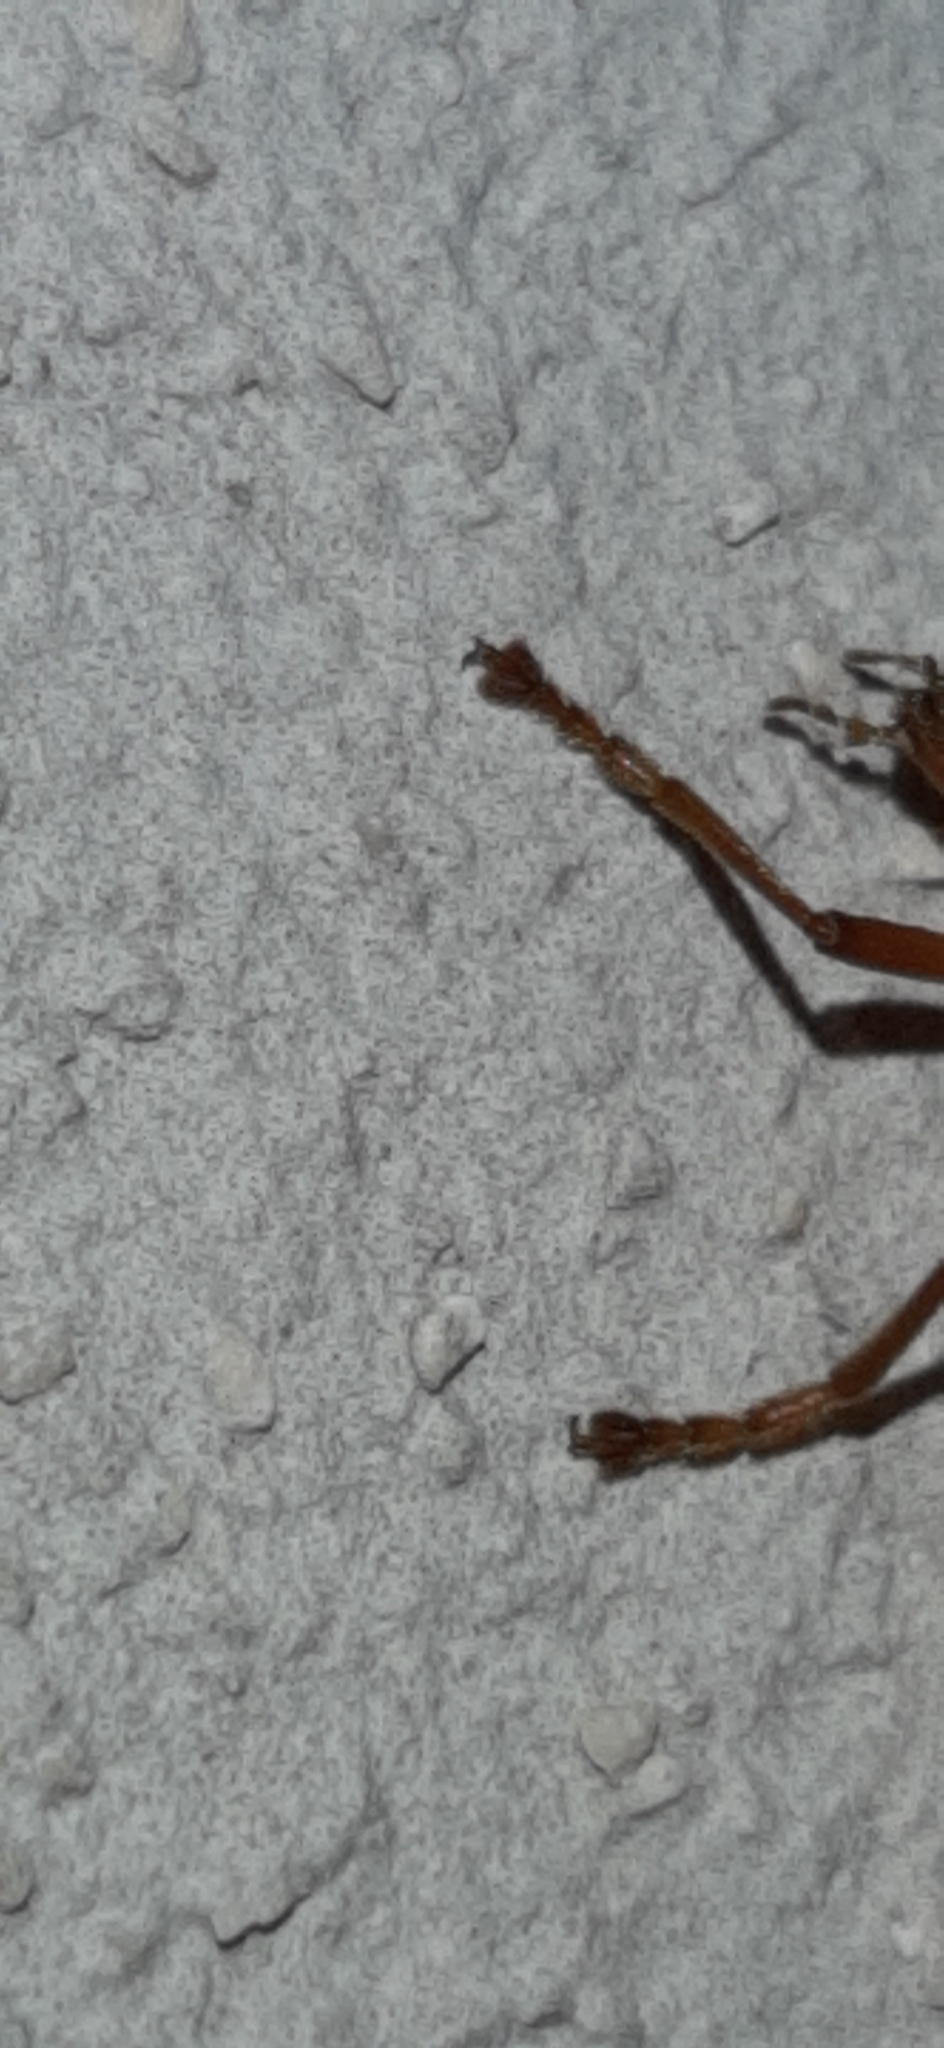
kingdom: Animalia
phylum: Arthropoda
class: Insecta
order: Coleoptera
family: Cantharidae
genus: Chauliognathus
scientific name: Chauliognathus
